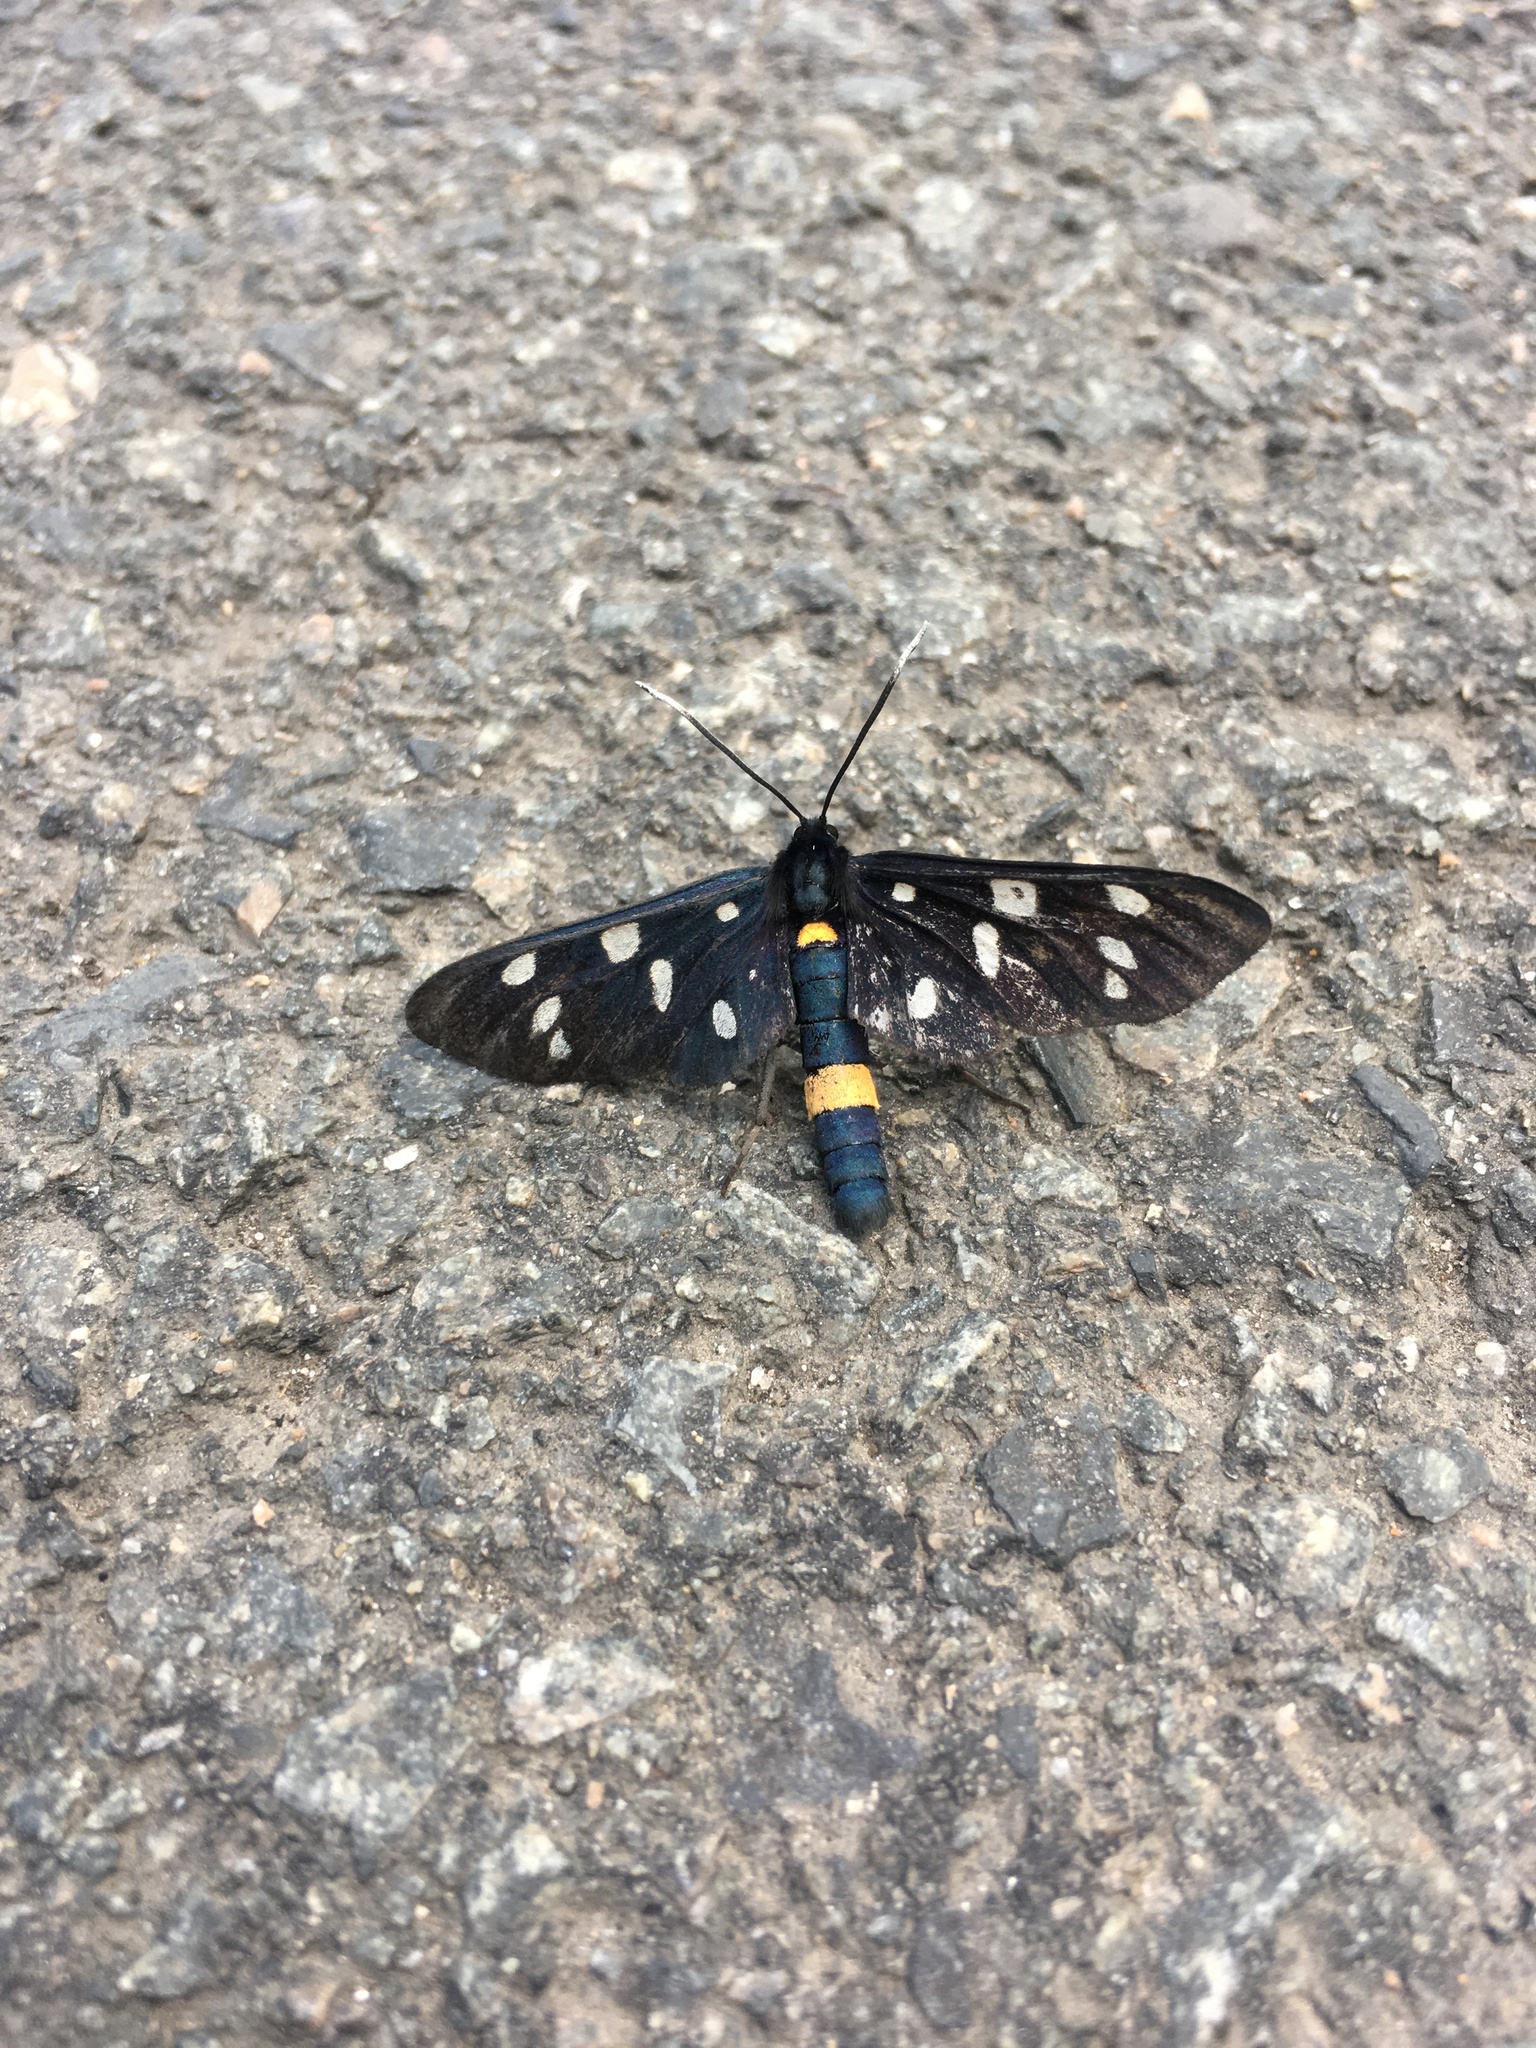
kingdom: Animalia
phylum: Arthropoda
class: Insecta
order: Lepidoptera
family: Erebidae
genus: Amata
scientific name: Amata phegea
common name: Nine-spotted
